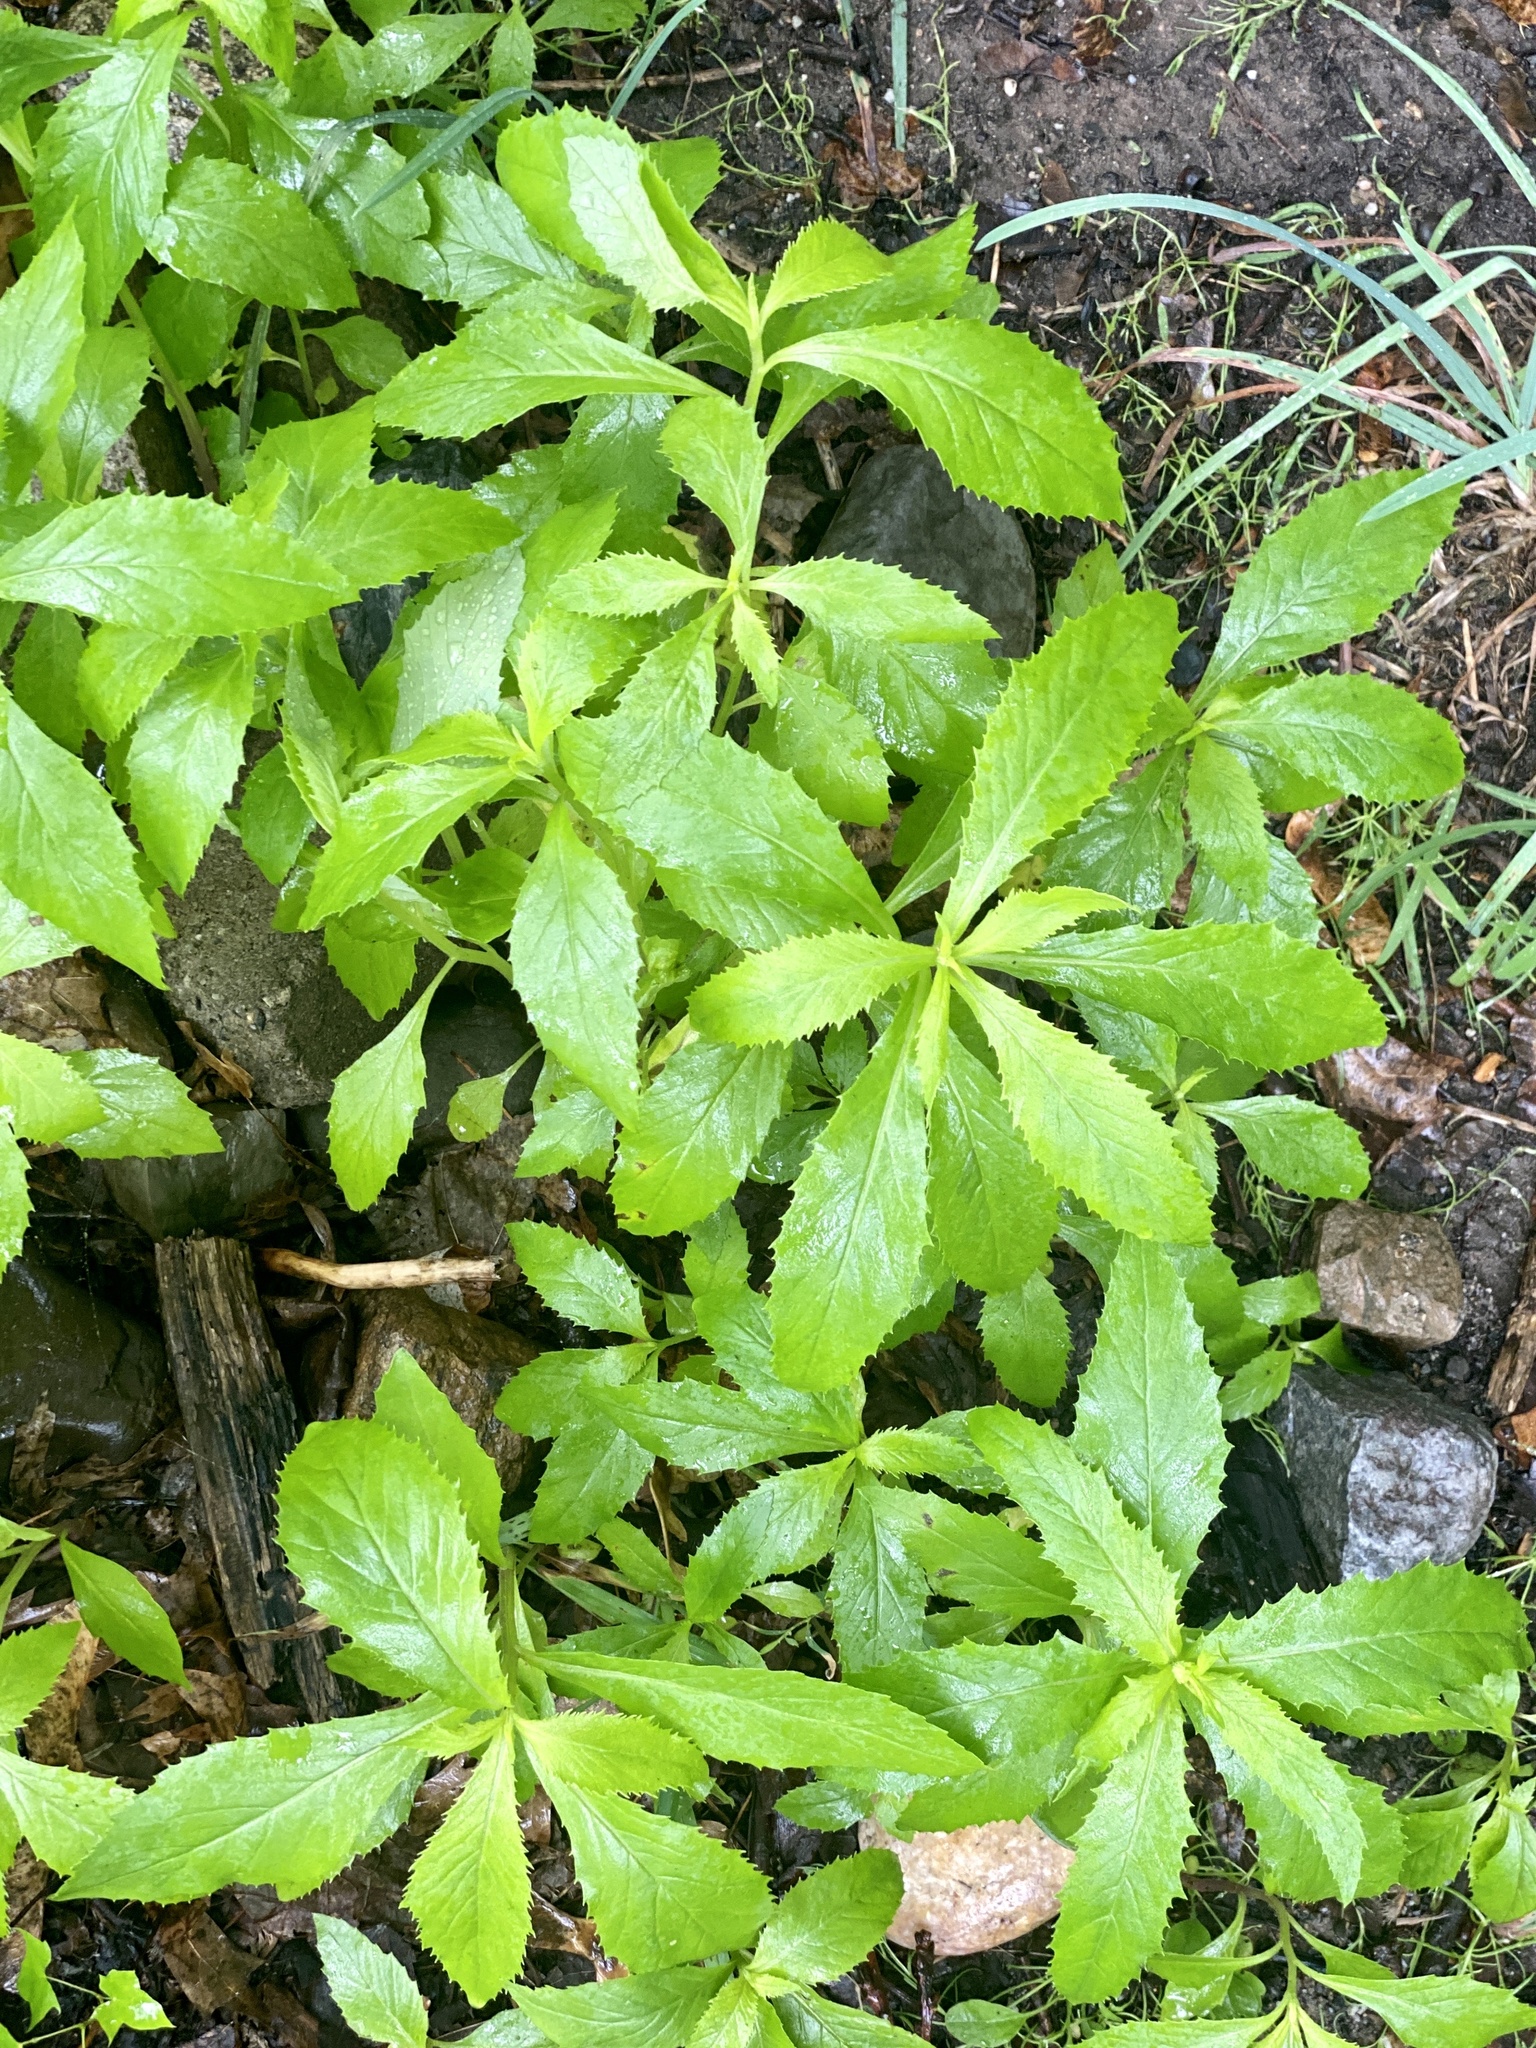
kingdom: Plantae
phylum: Tracheophyta
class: Magnoliopsida
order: Asterales
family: Asteraceae
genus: Erechtites
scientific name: Erechtites hieraciifolius
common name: American burnweed
